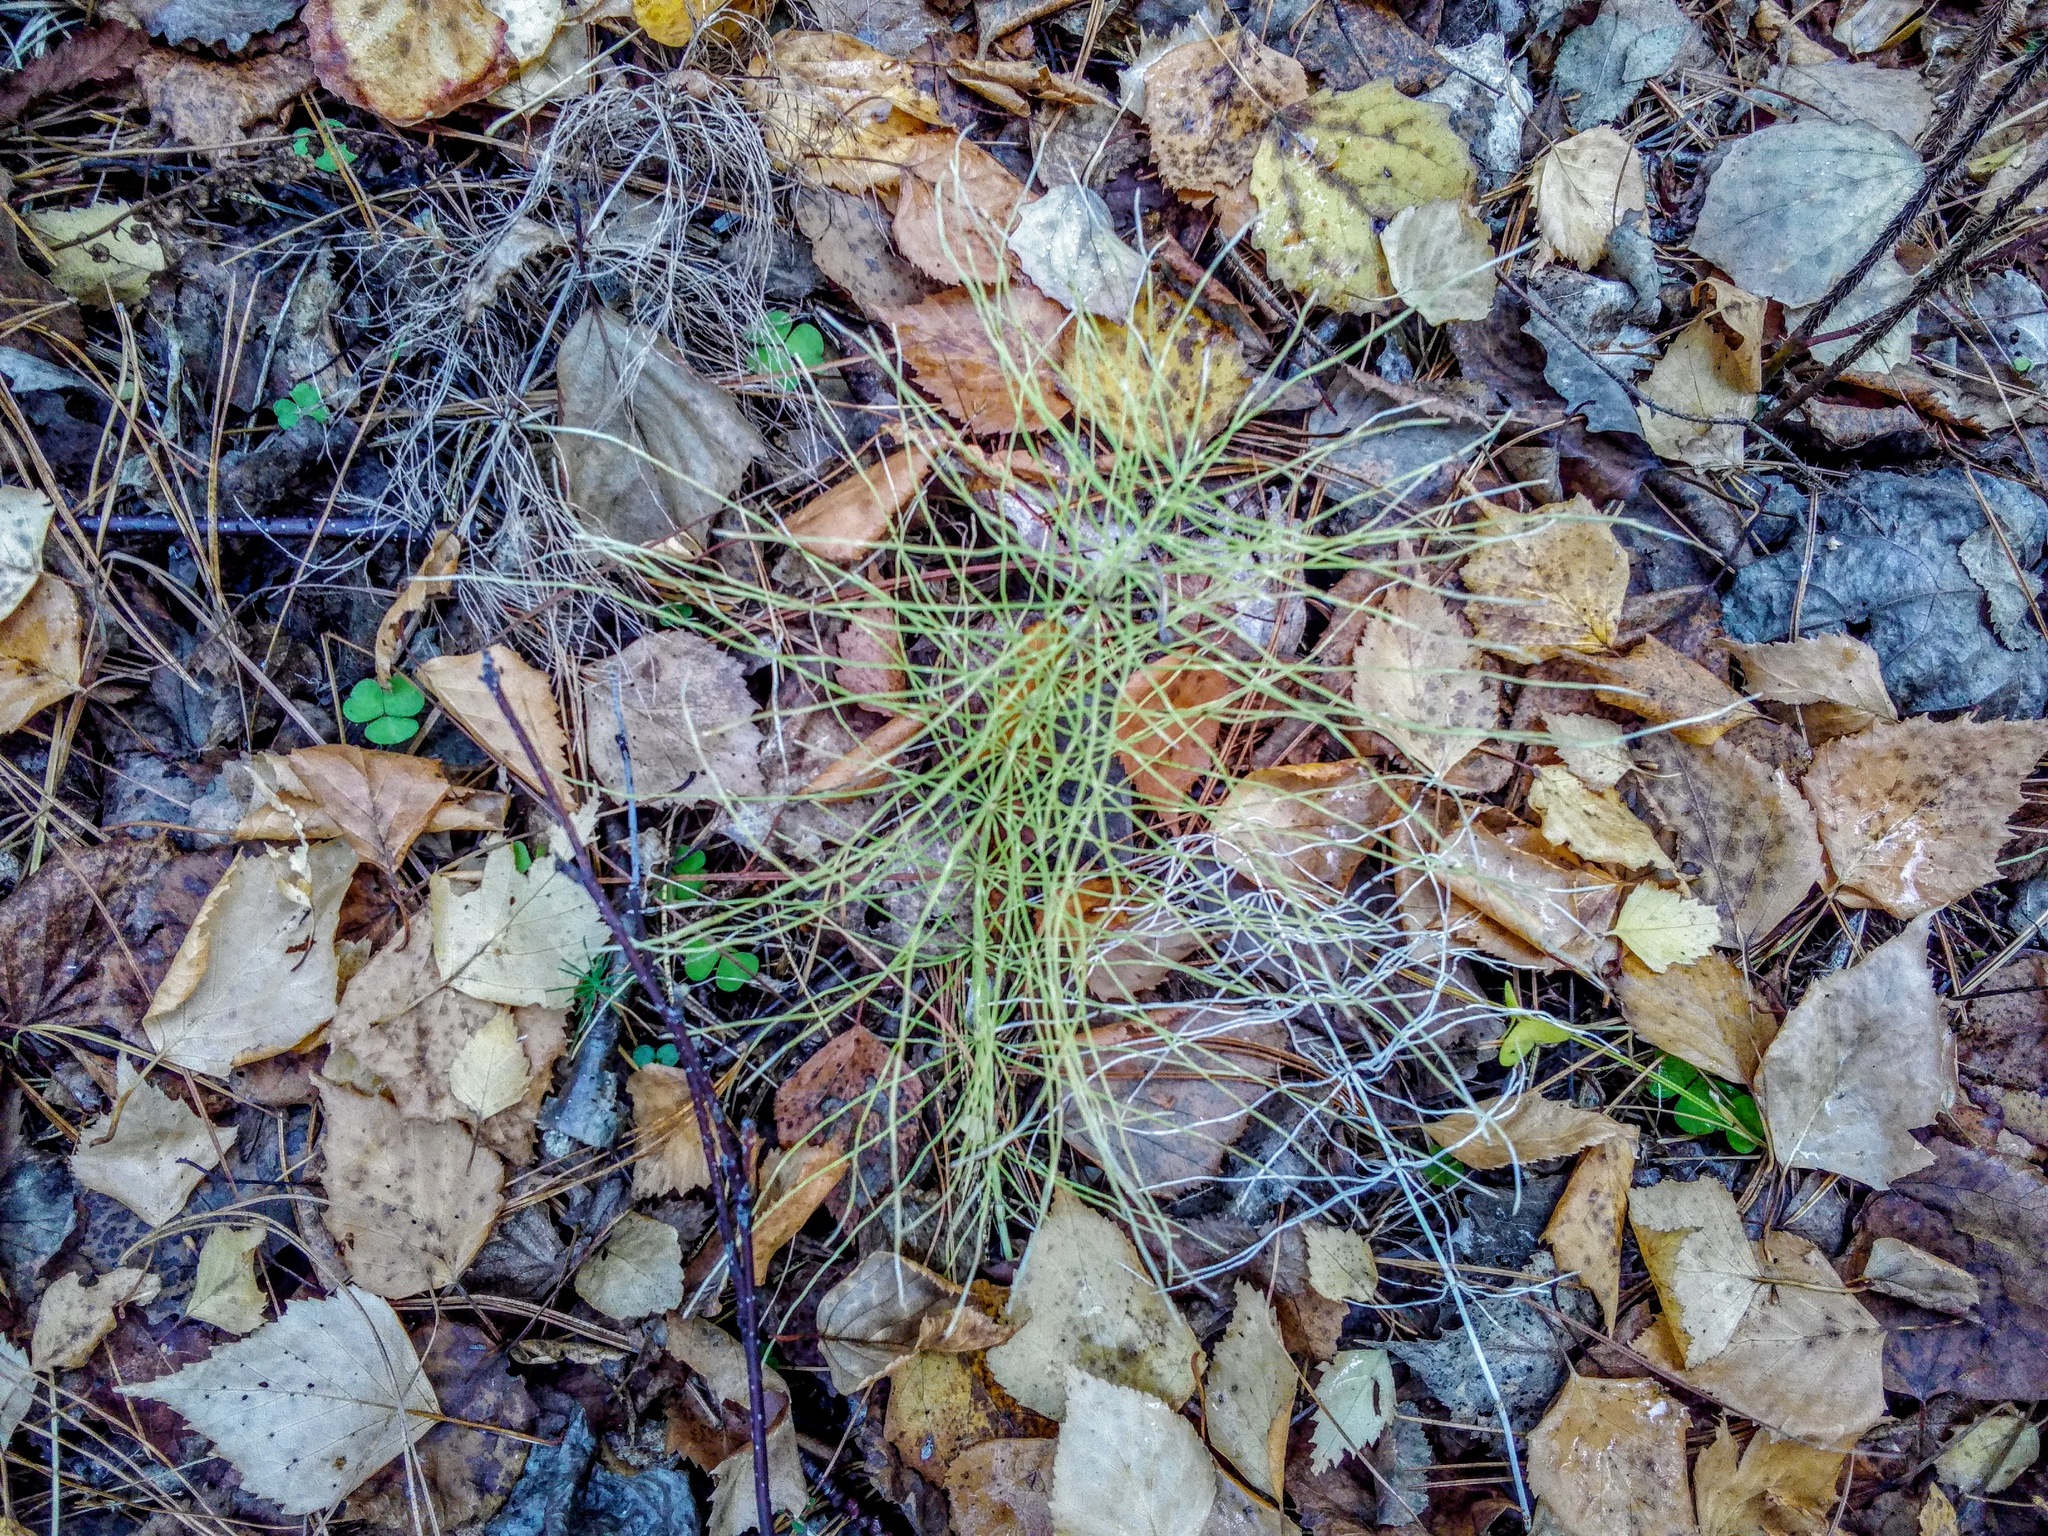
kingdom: Plantae
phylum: Tracheophyta
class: Polypodiopsida
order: Equisetales
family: Equisetaceae
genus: Equisetum
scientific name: Equisetum pratense
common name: Meadow horsetail
